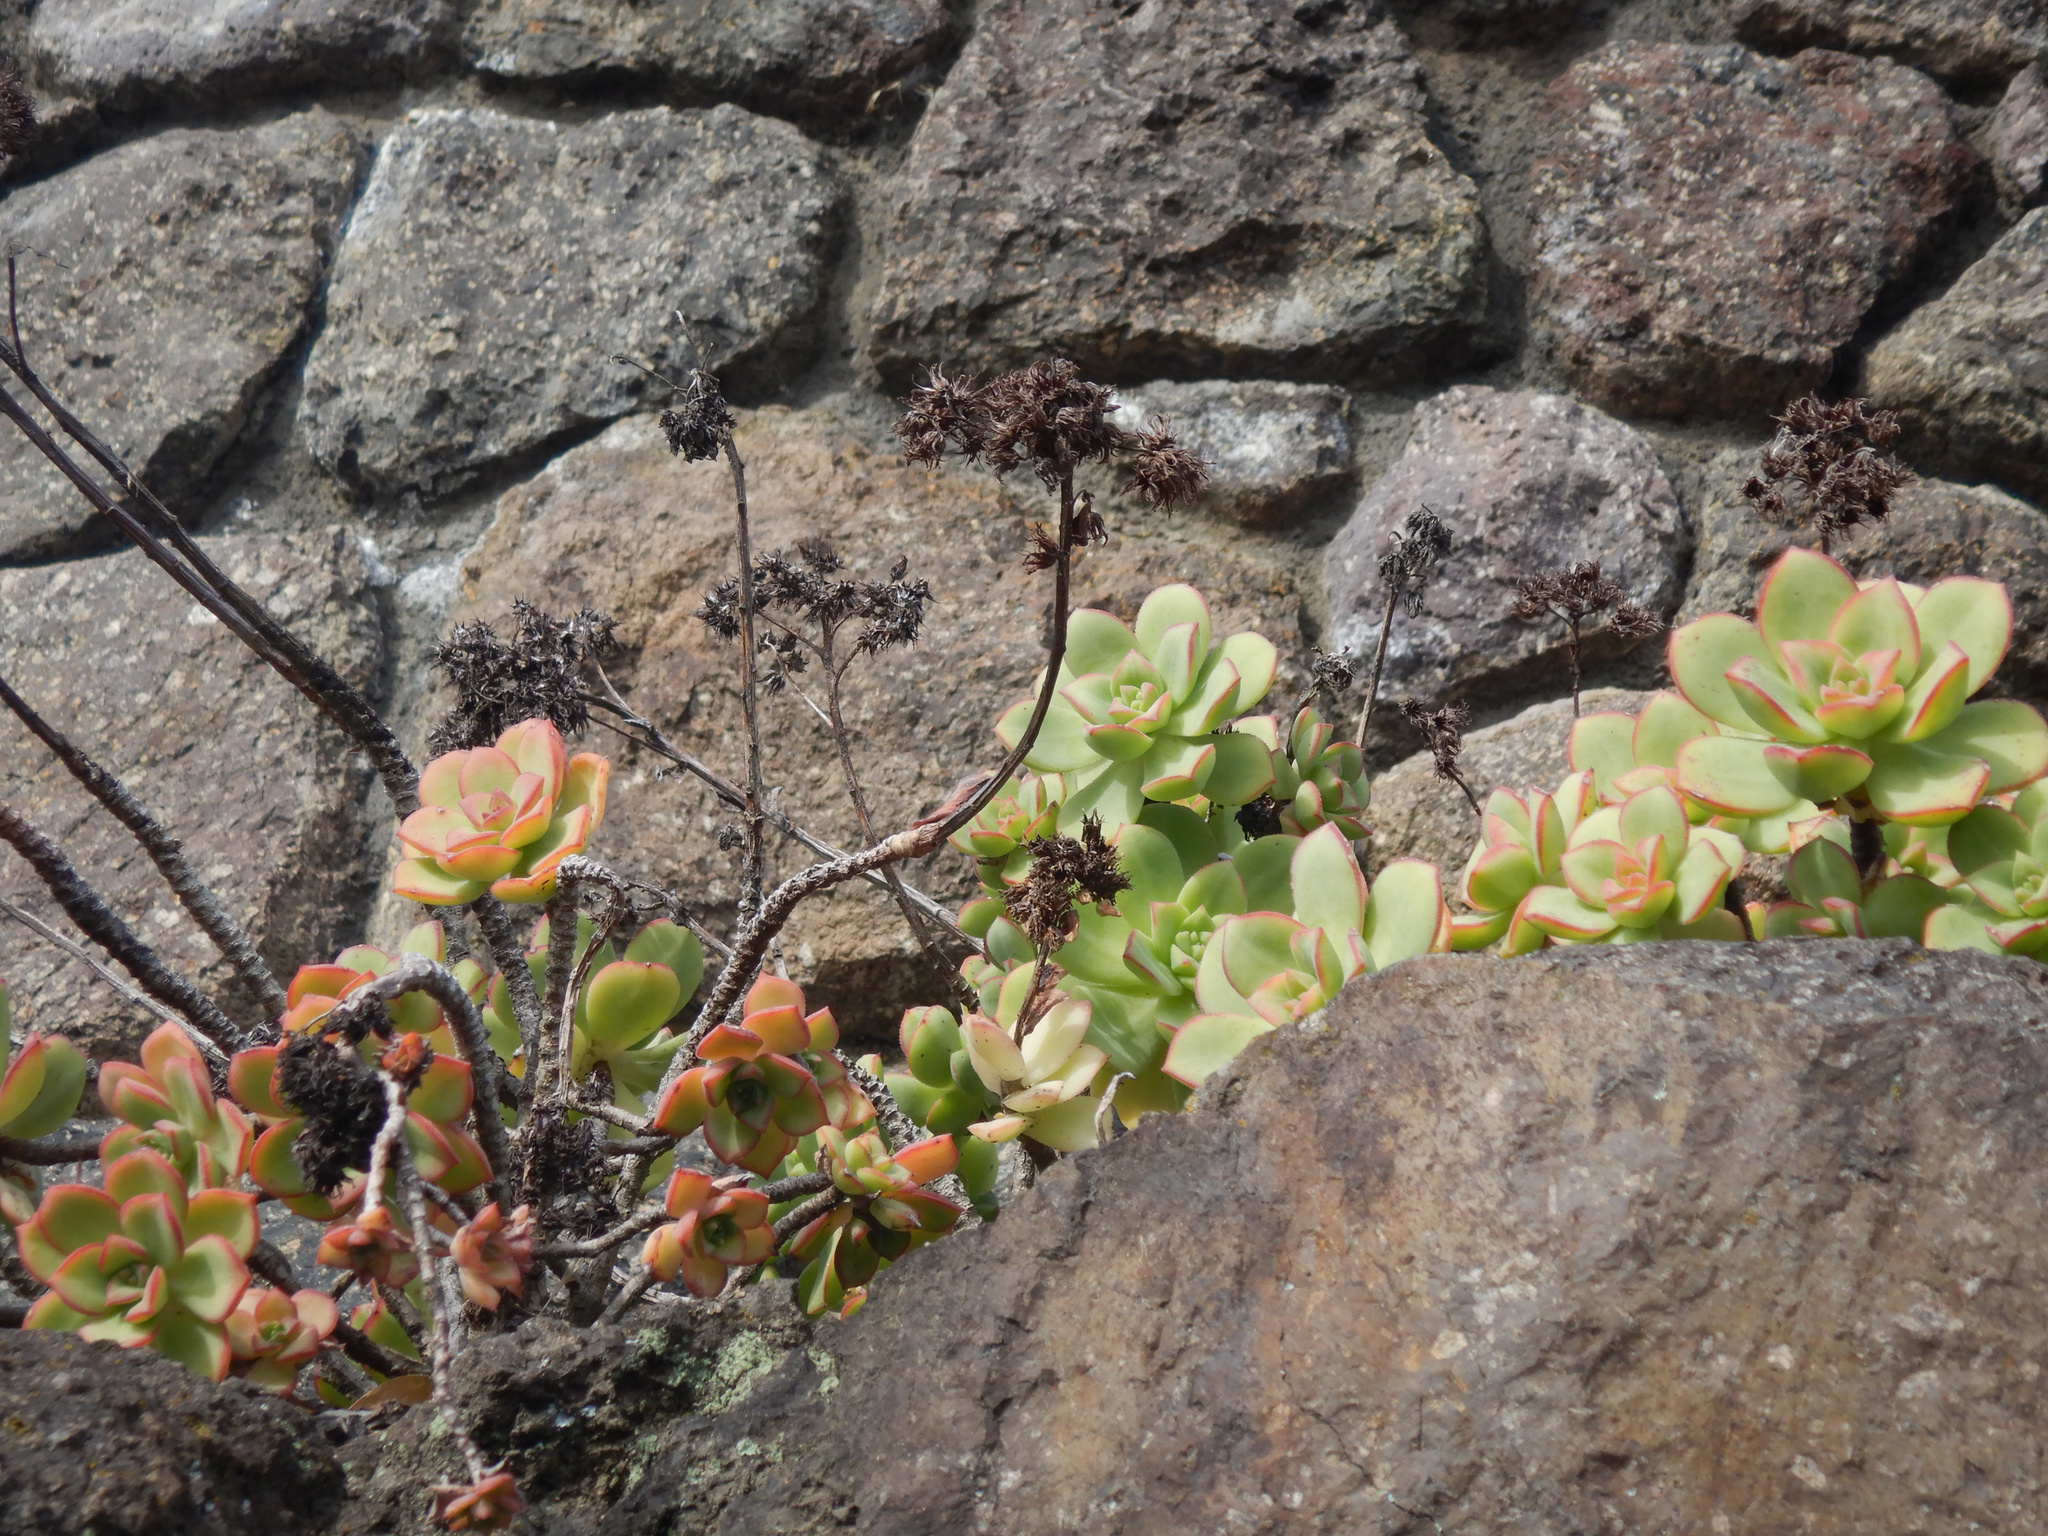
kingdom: Plantae
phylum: Tracheophyta
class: Magnoliopsida
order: Saxifragales
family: Crassulaceae
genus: Aeonium
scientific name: Aeonium haworthii
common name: Haworth's aeonium
